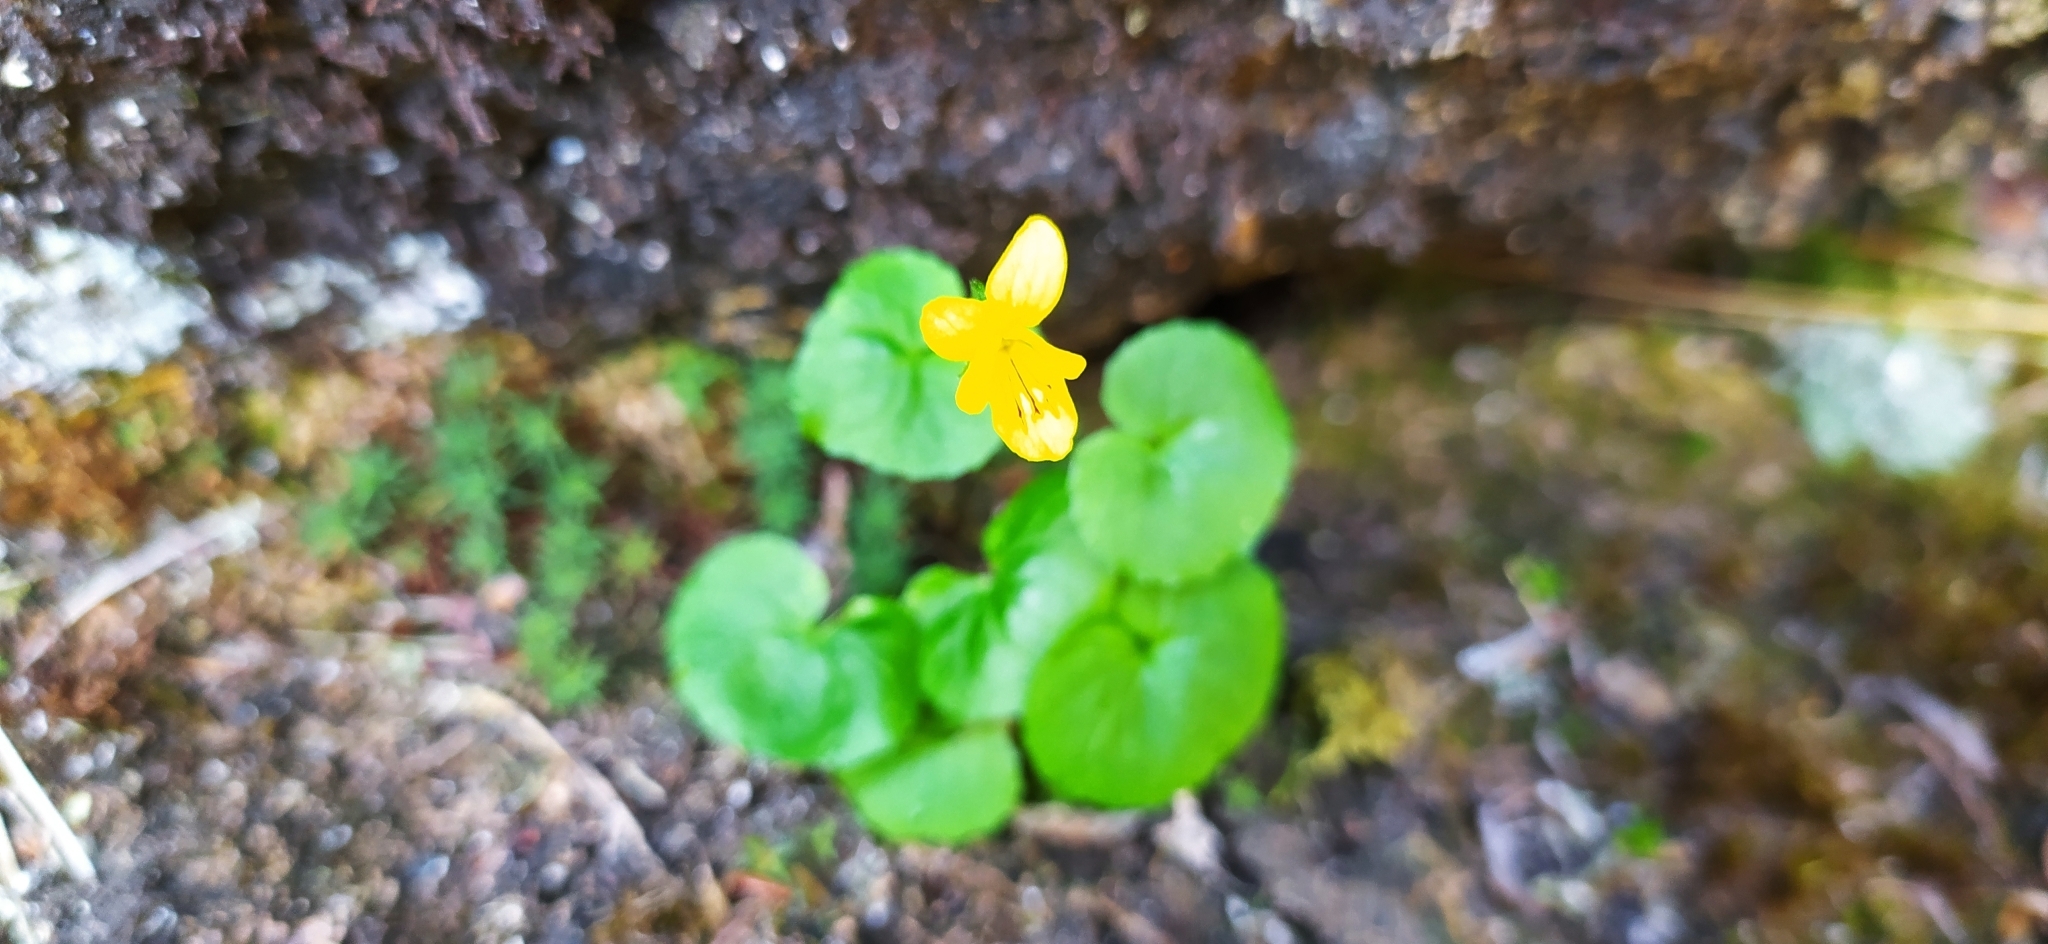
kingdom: Plantae
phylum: Tracheophyta
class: Magnoliopsida
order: Malpighiales
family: Violaceae
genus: Viola
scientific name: Viola biflora
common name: Alpine yellow violet
